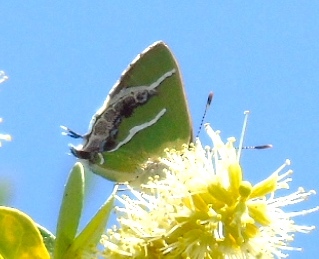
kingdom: Animalia
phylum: Arthropoda
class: Insecta
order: Lepidoptera
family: Lycaenidae
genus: Chlorostrymon
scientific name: Chlorostrymon simaethis
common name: Silver-banded hairstreak
